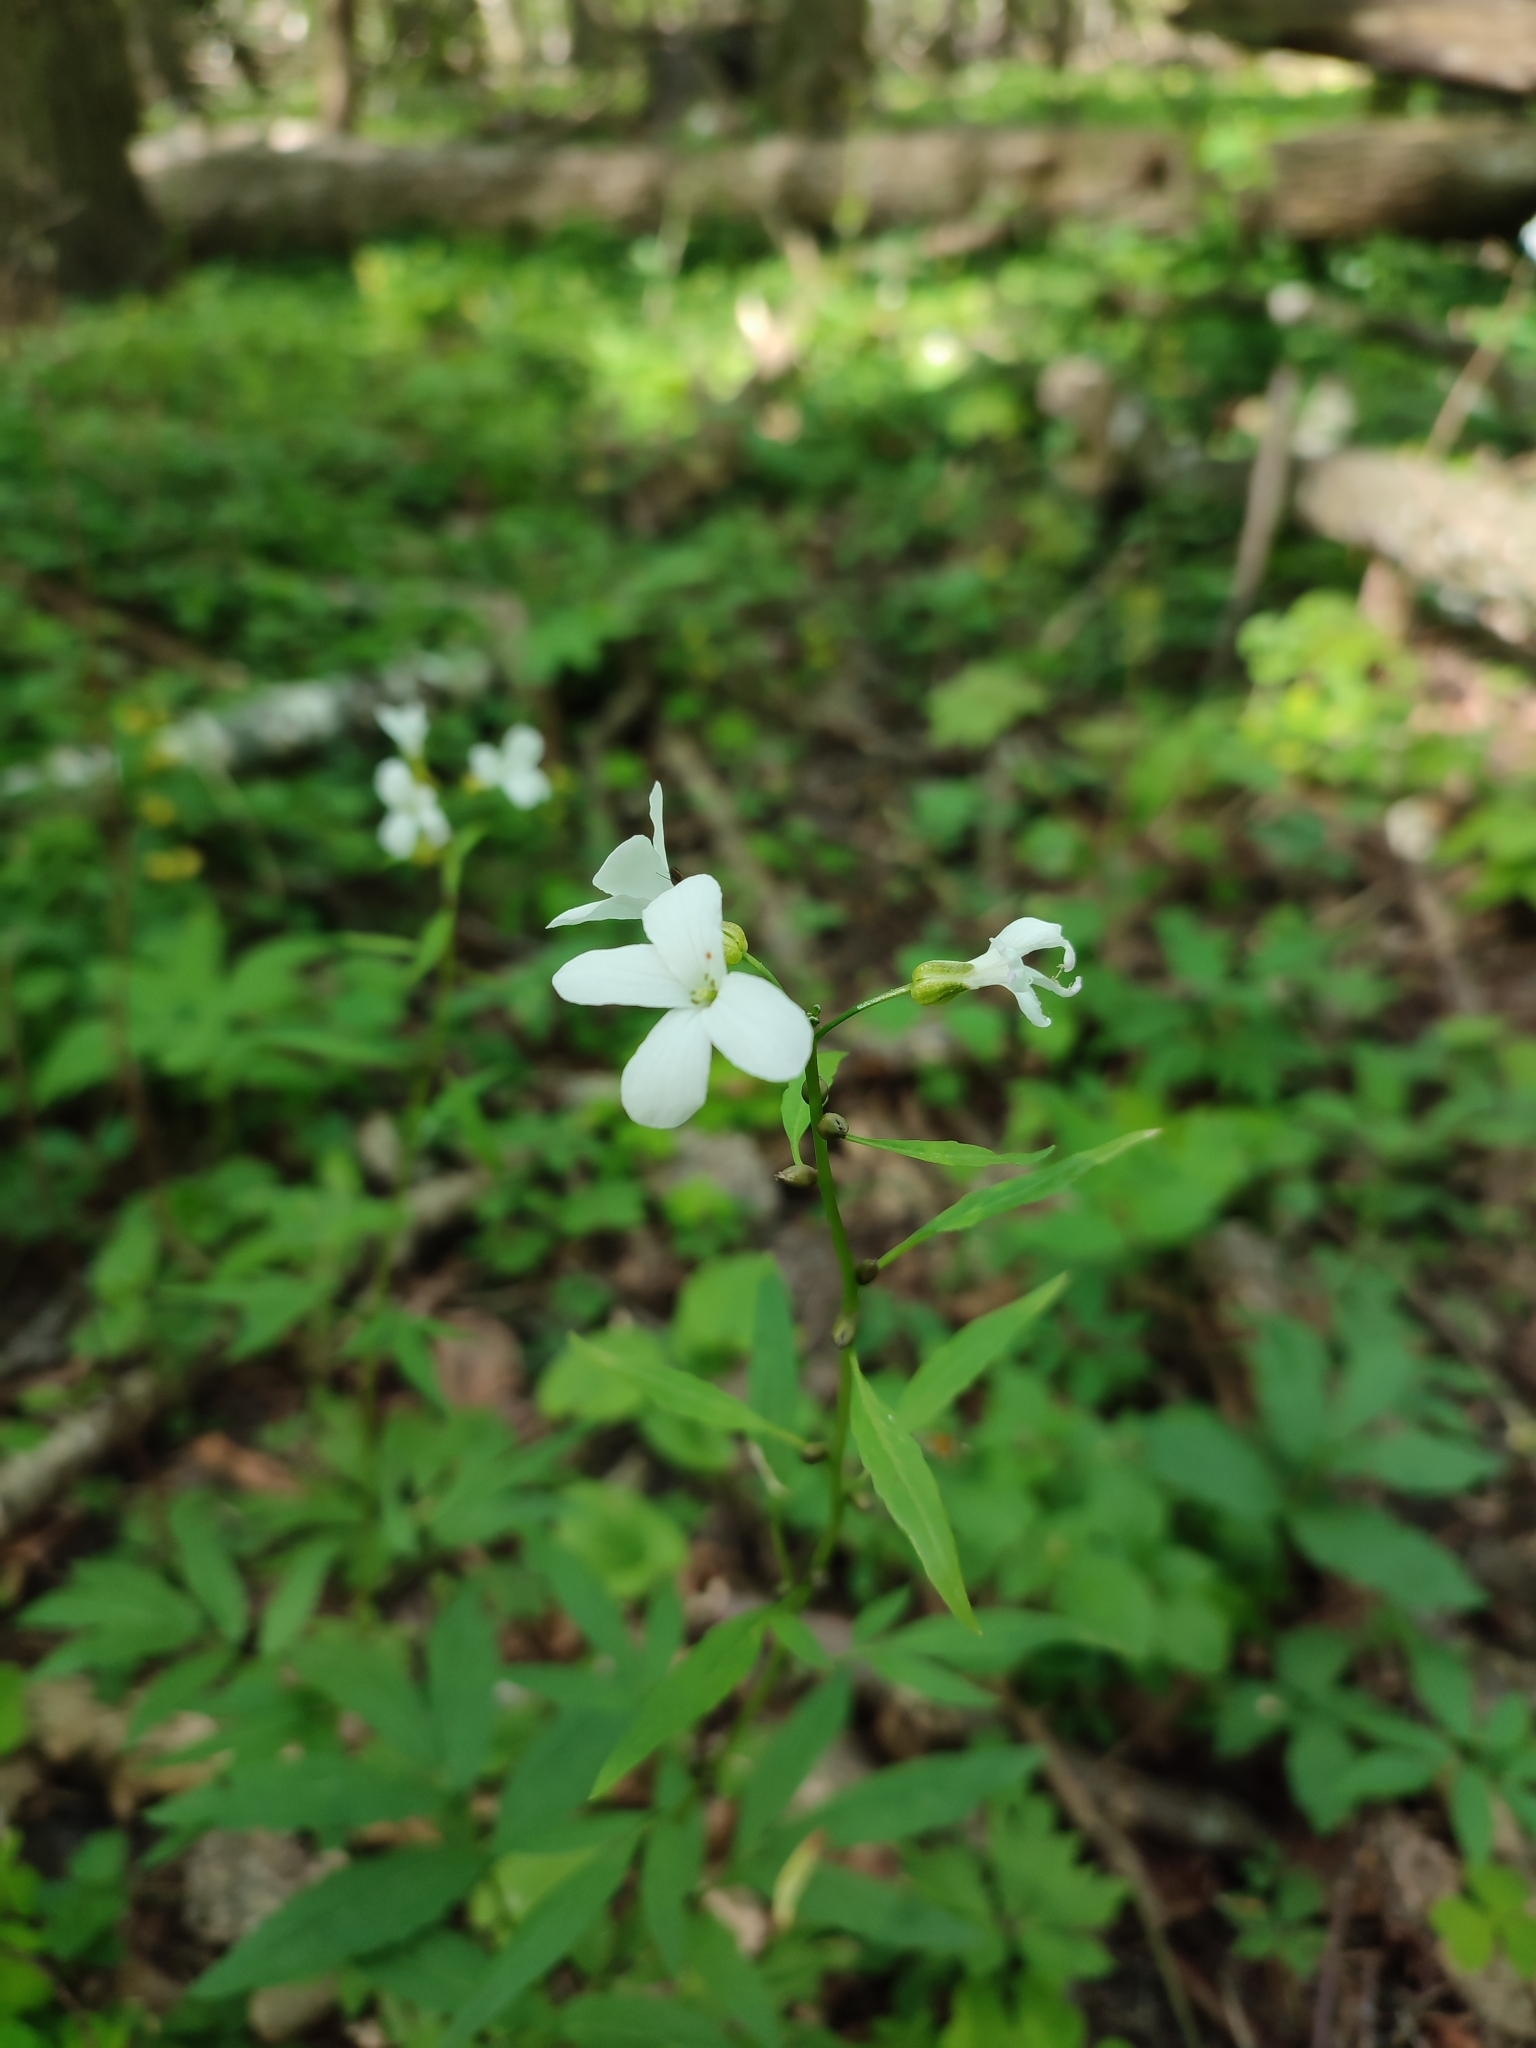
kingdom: Plantae
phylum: Tracheophyta
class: Magnoliopsida
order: Brassicales
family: Brassicaceae
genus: Cardamine
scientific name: Cardamine bulbifera
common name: Coralroot bittercress
